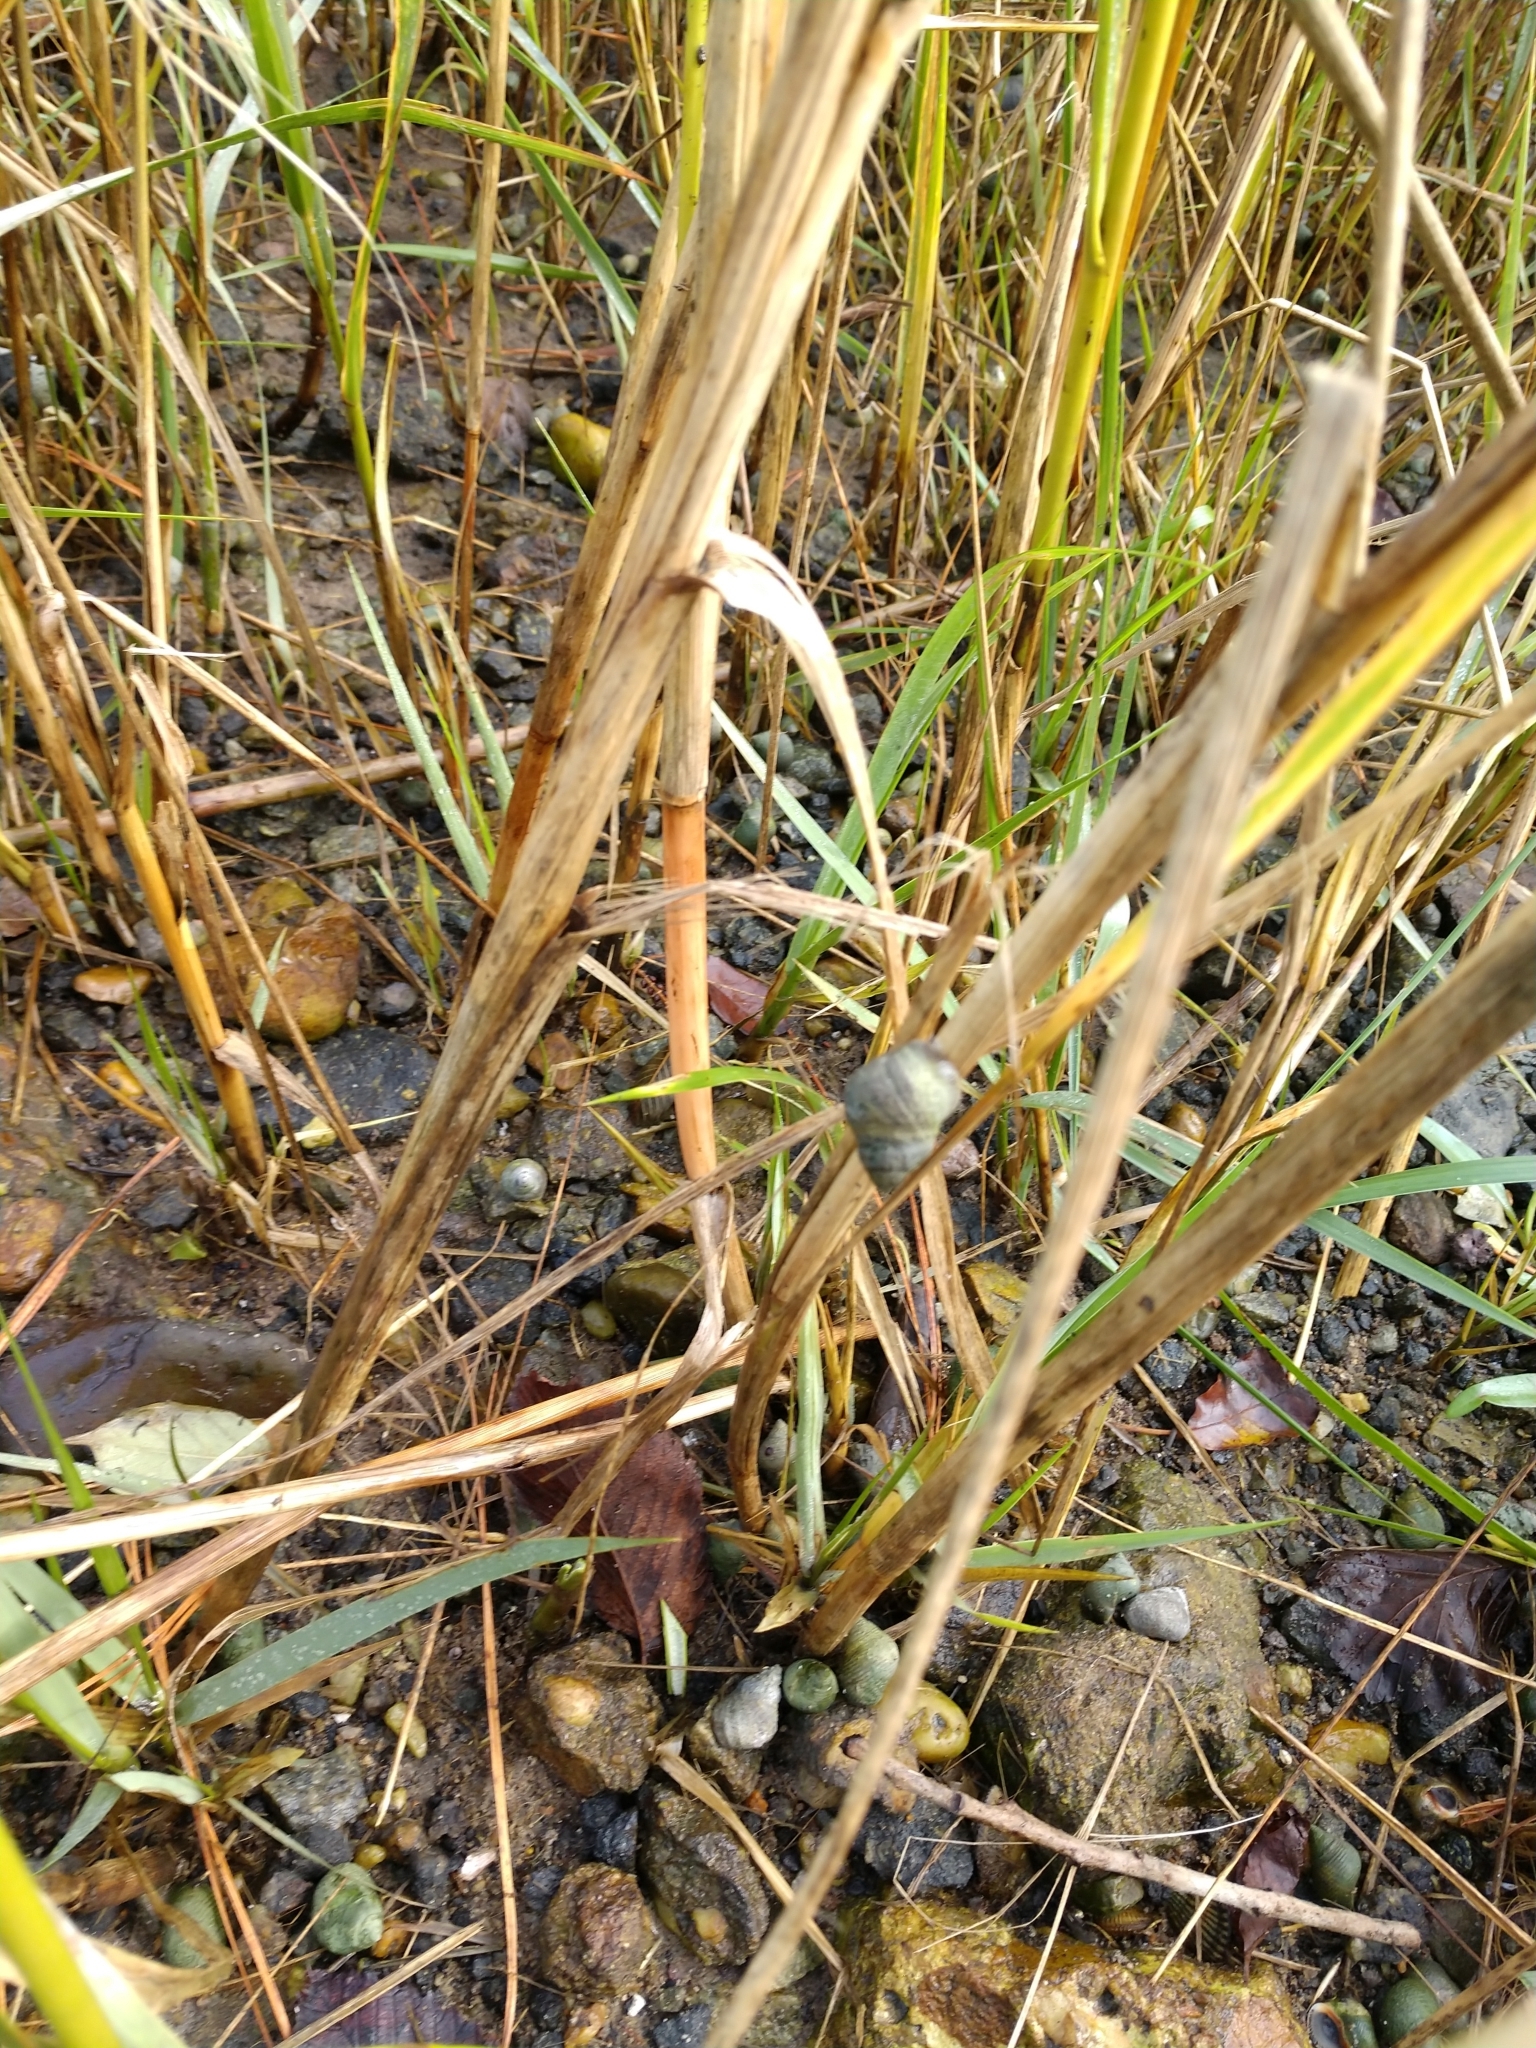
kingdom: Animalia
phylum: Mollusca
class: Gastropoda
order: Littorinimorpha
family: Littorinidae
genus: Littoraria
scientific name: Littoraria irrorata
